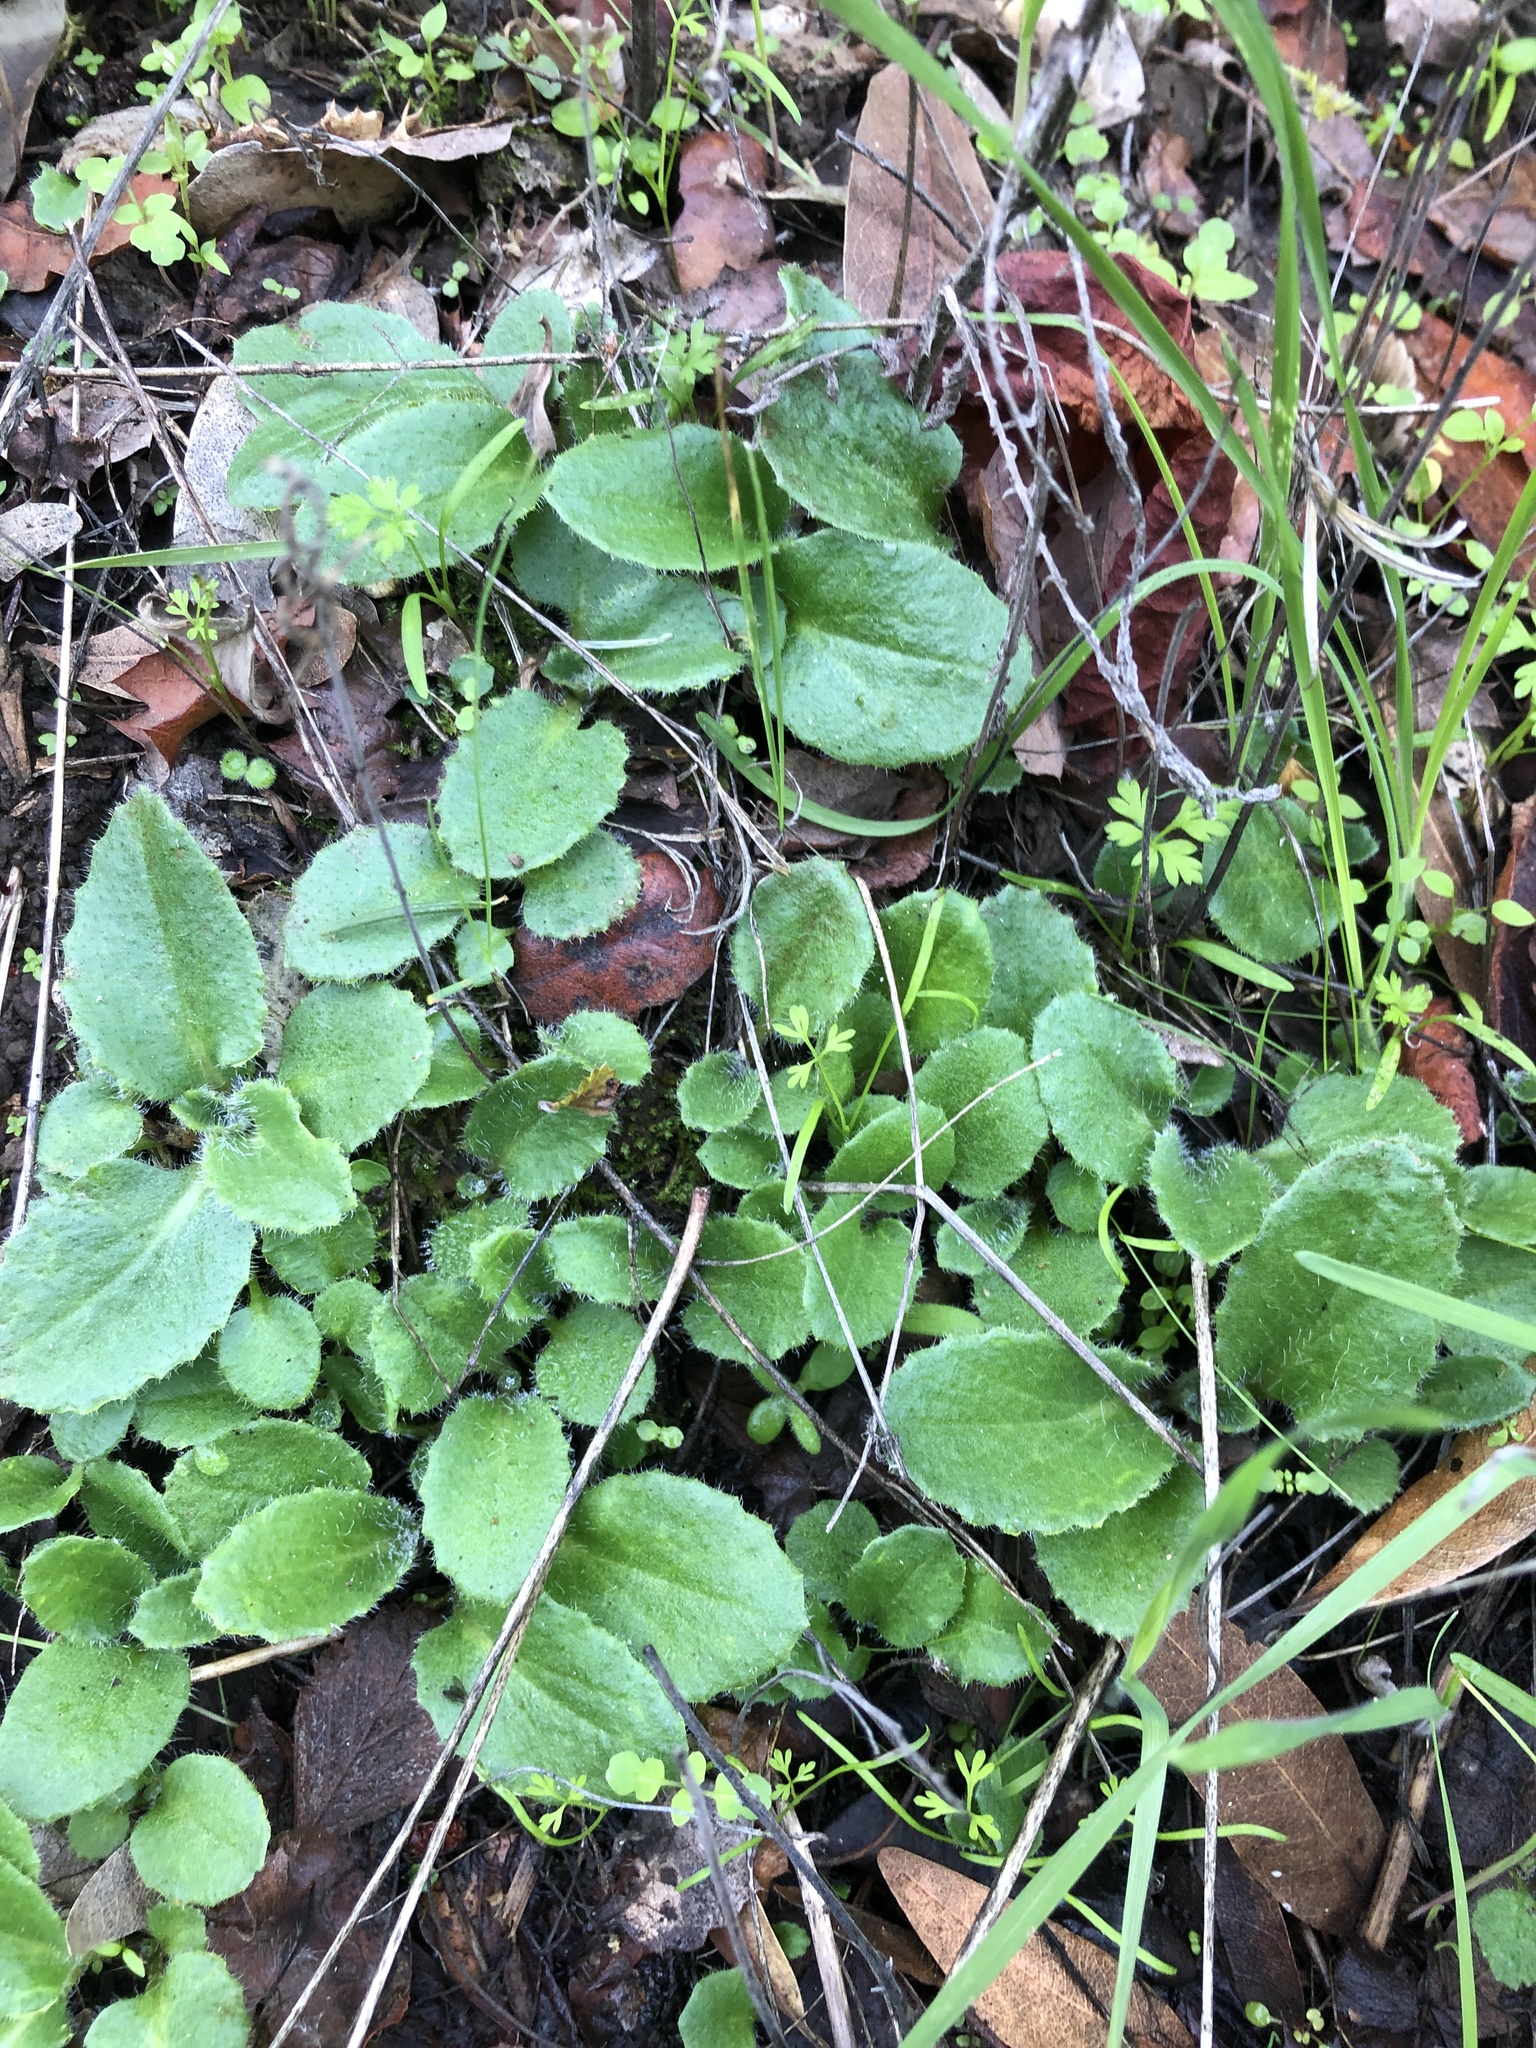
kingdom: Plantae
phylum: Tracheophyta
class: Magnoliopsida
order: Saxifragales
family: Saxifragaceae
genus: Micranthes
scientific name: Micranthes californica
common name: California saxifrage
